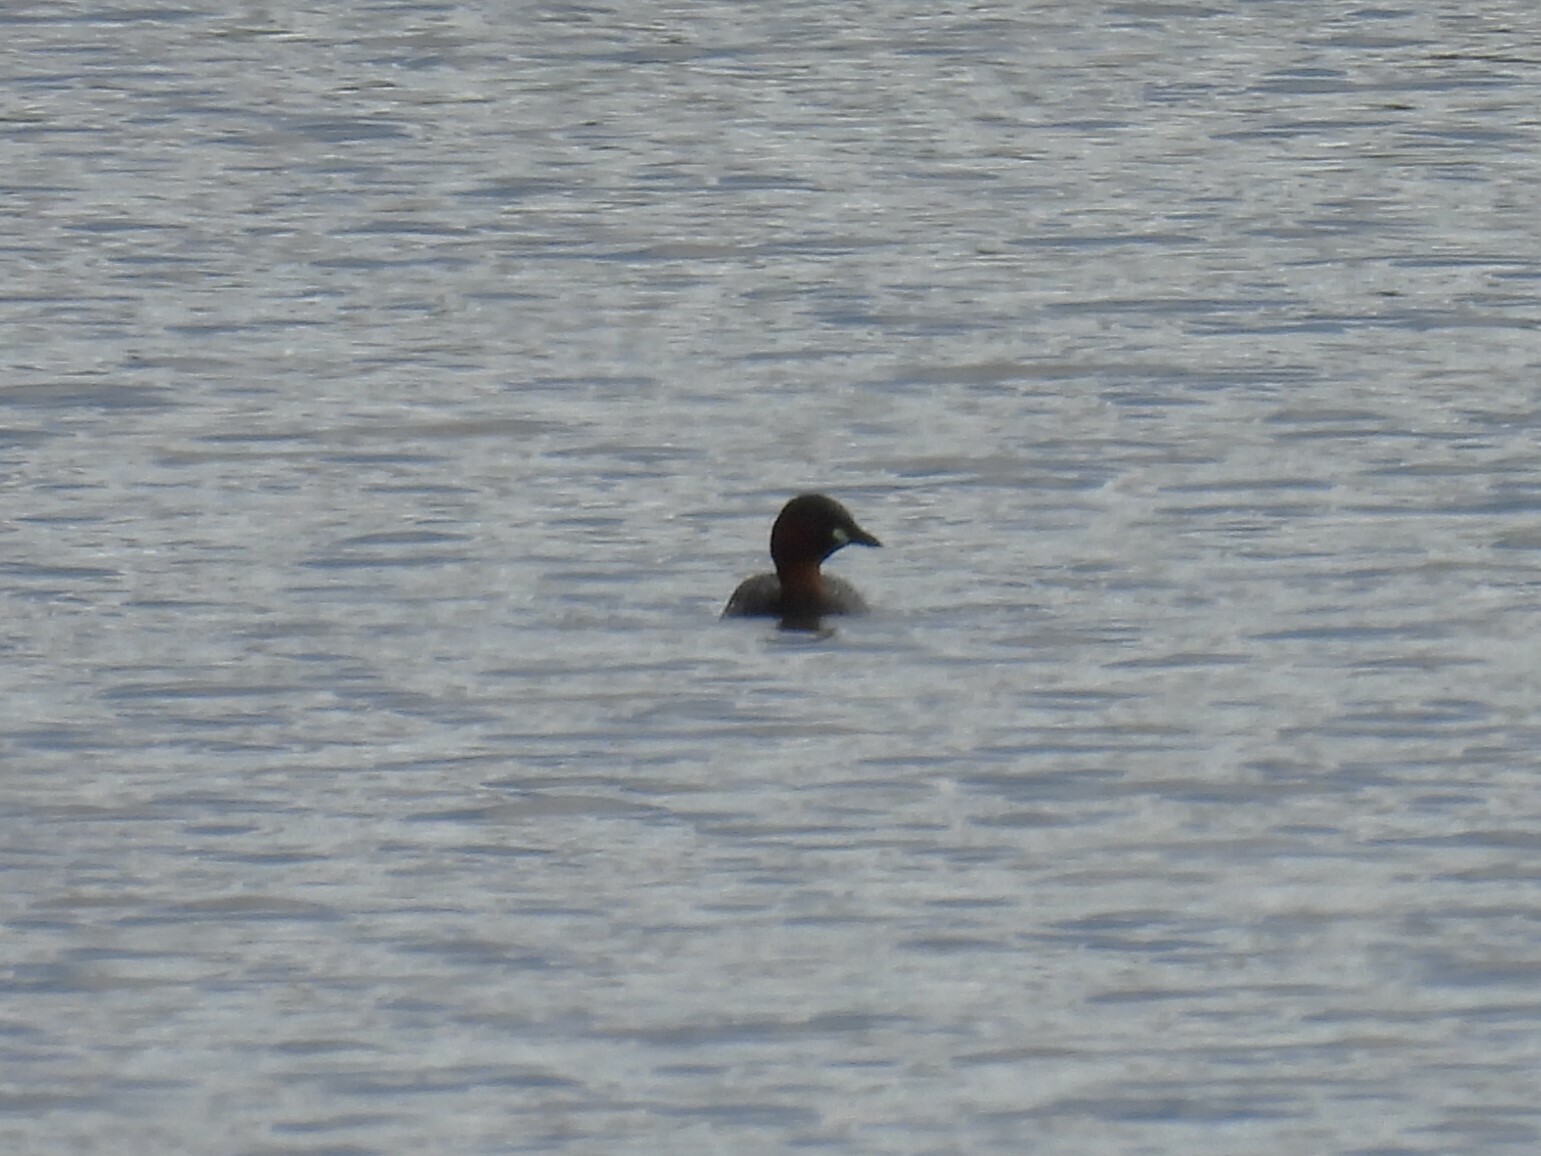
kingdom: Animalia
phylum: Chordata
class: Aves
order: Podicipediformes
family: Podicipedidae
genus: Tachybaptus
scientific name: Tachybaptus ruficollis
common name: Little grebe
